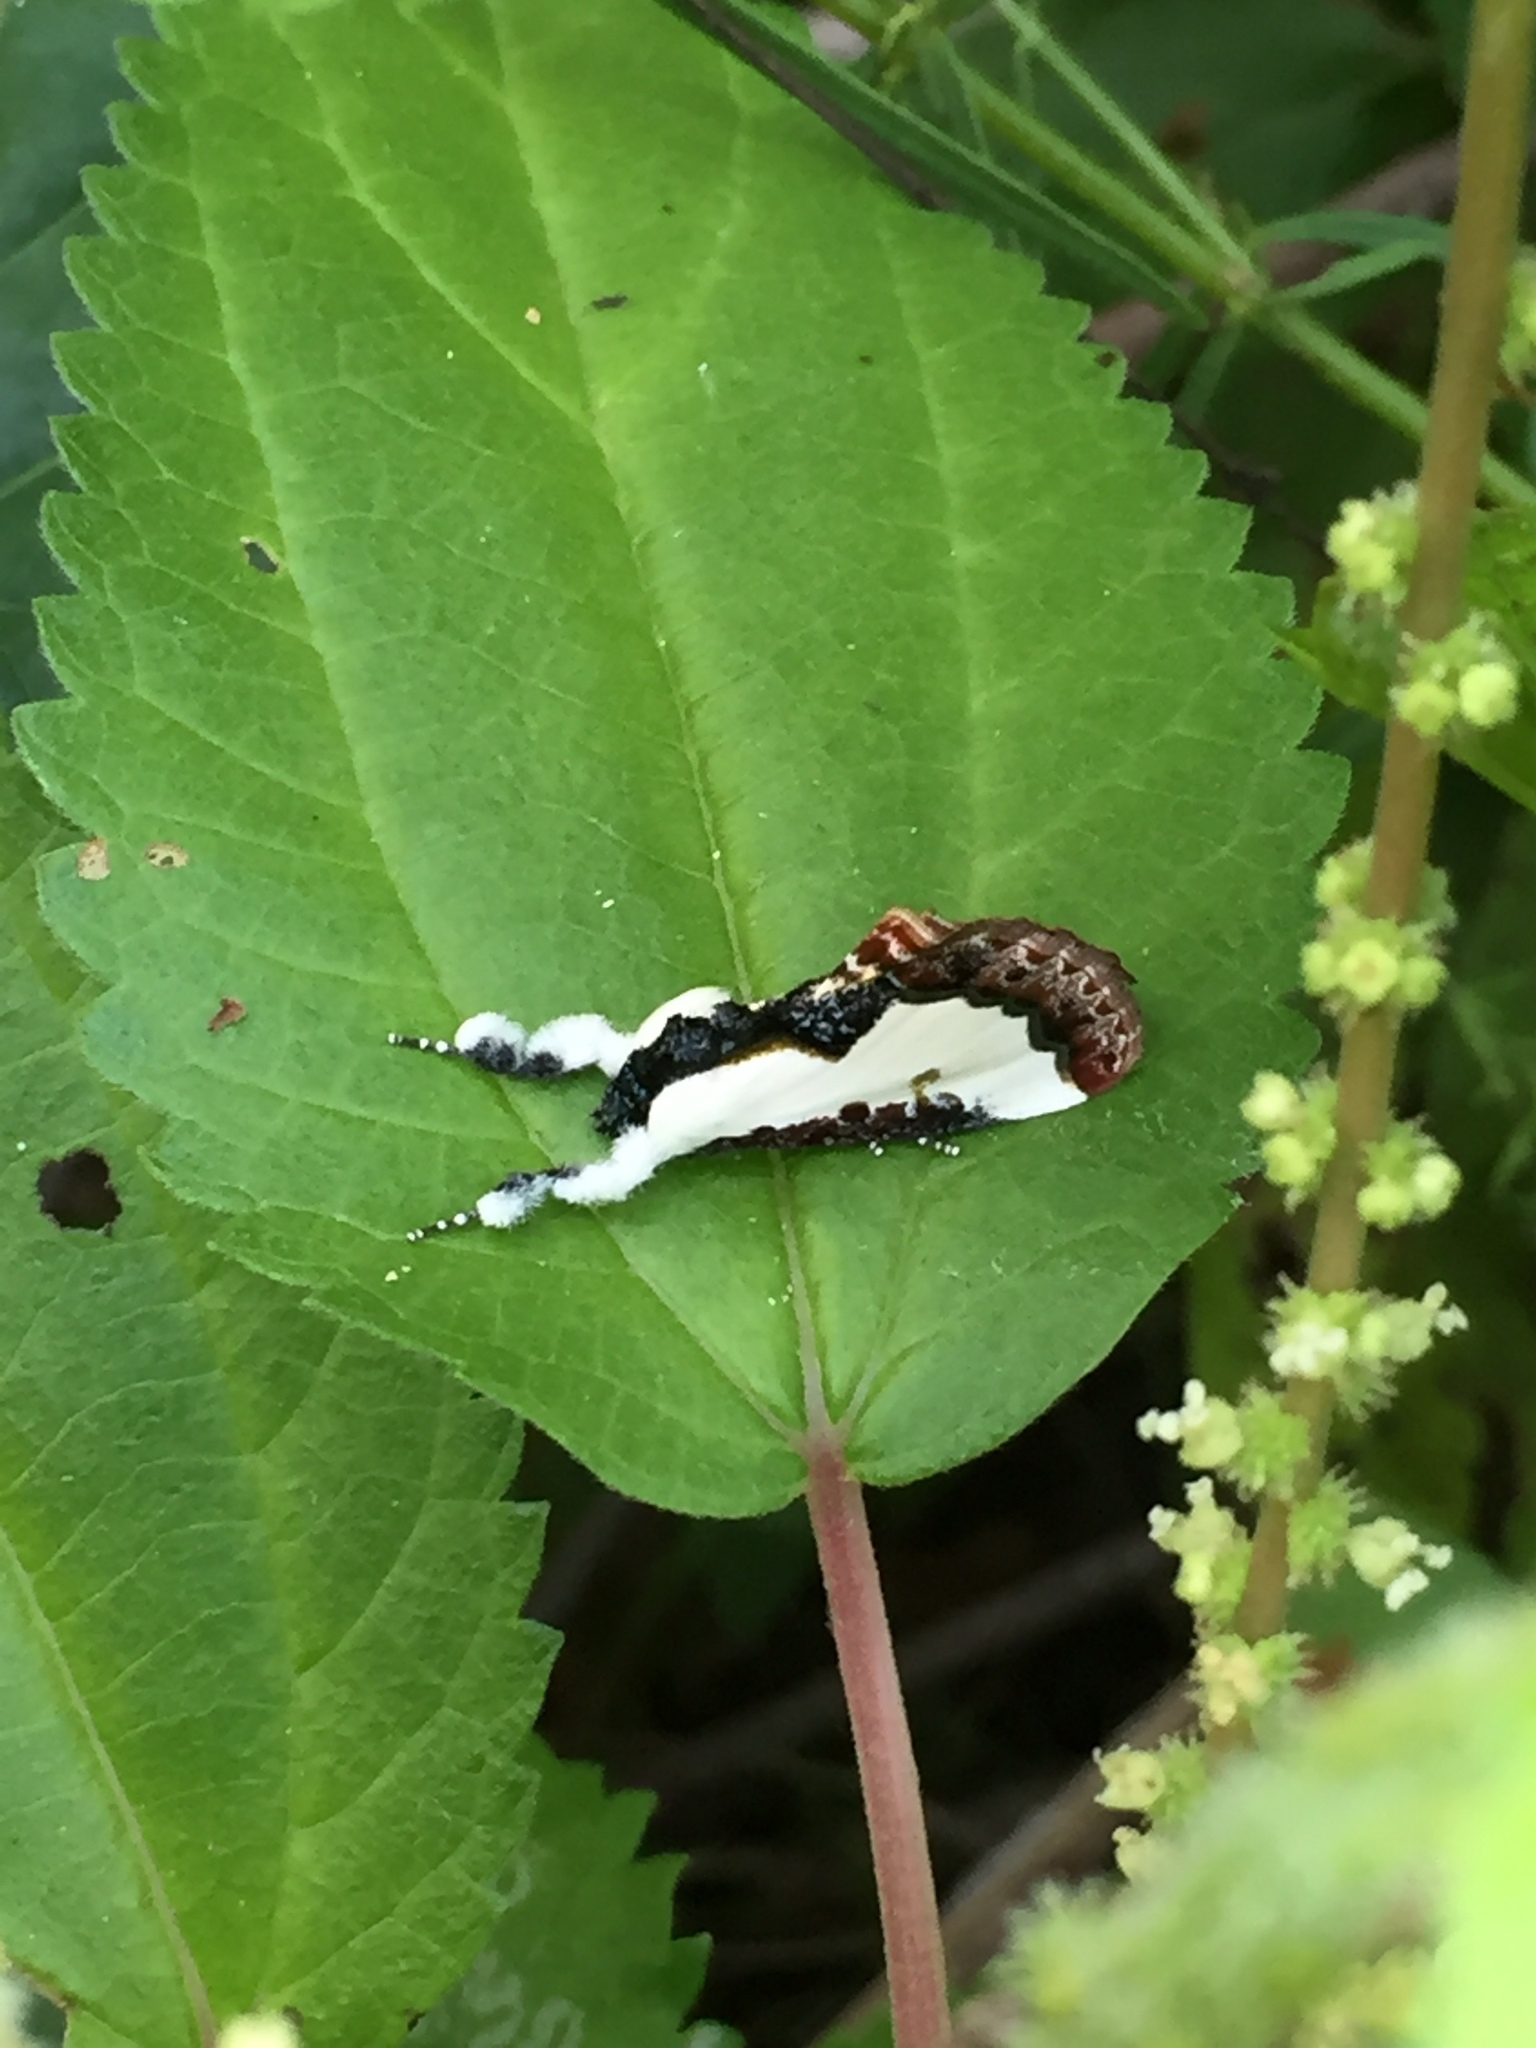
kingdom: Animalia
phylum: Arthropoda
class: Insecta
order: Lepidoptera
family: Noctuidae
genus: Eudryas
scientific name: Eudryas unio
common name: Pearly wood-nymph
